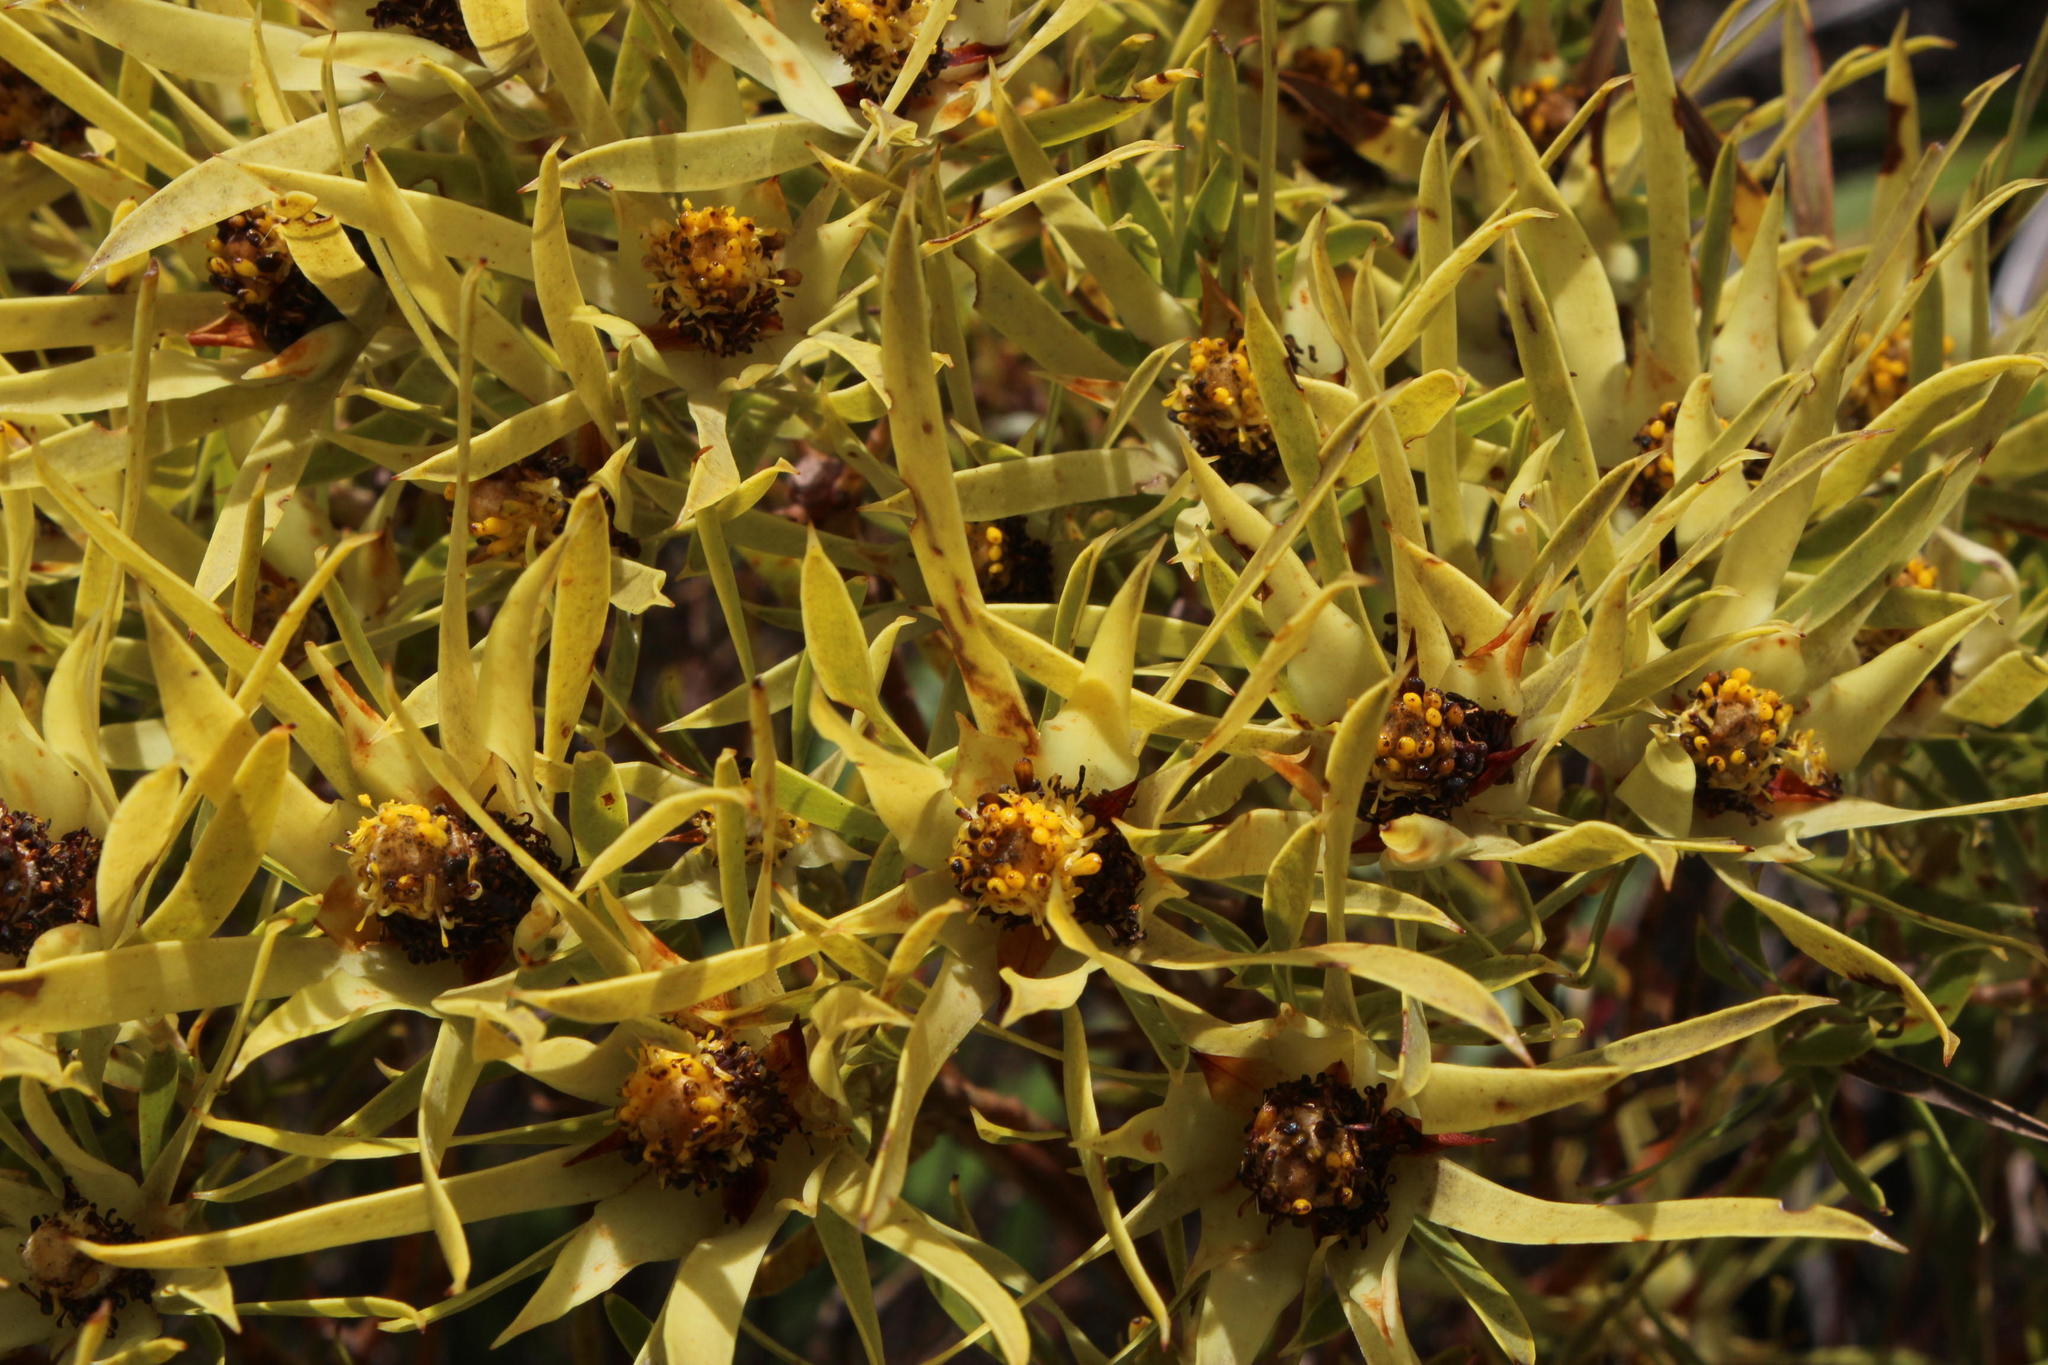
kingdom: Plantae
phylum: Tracheophyta
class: Magnoliopsida
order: Proteales
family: Proteaceae
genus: Leucadendron
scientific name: Leucadendron xanthoconus
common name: Sickle-leaf conebush
